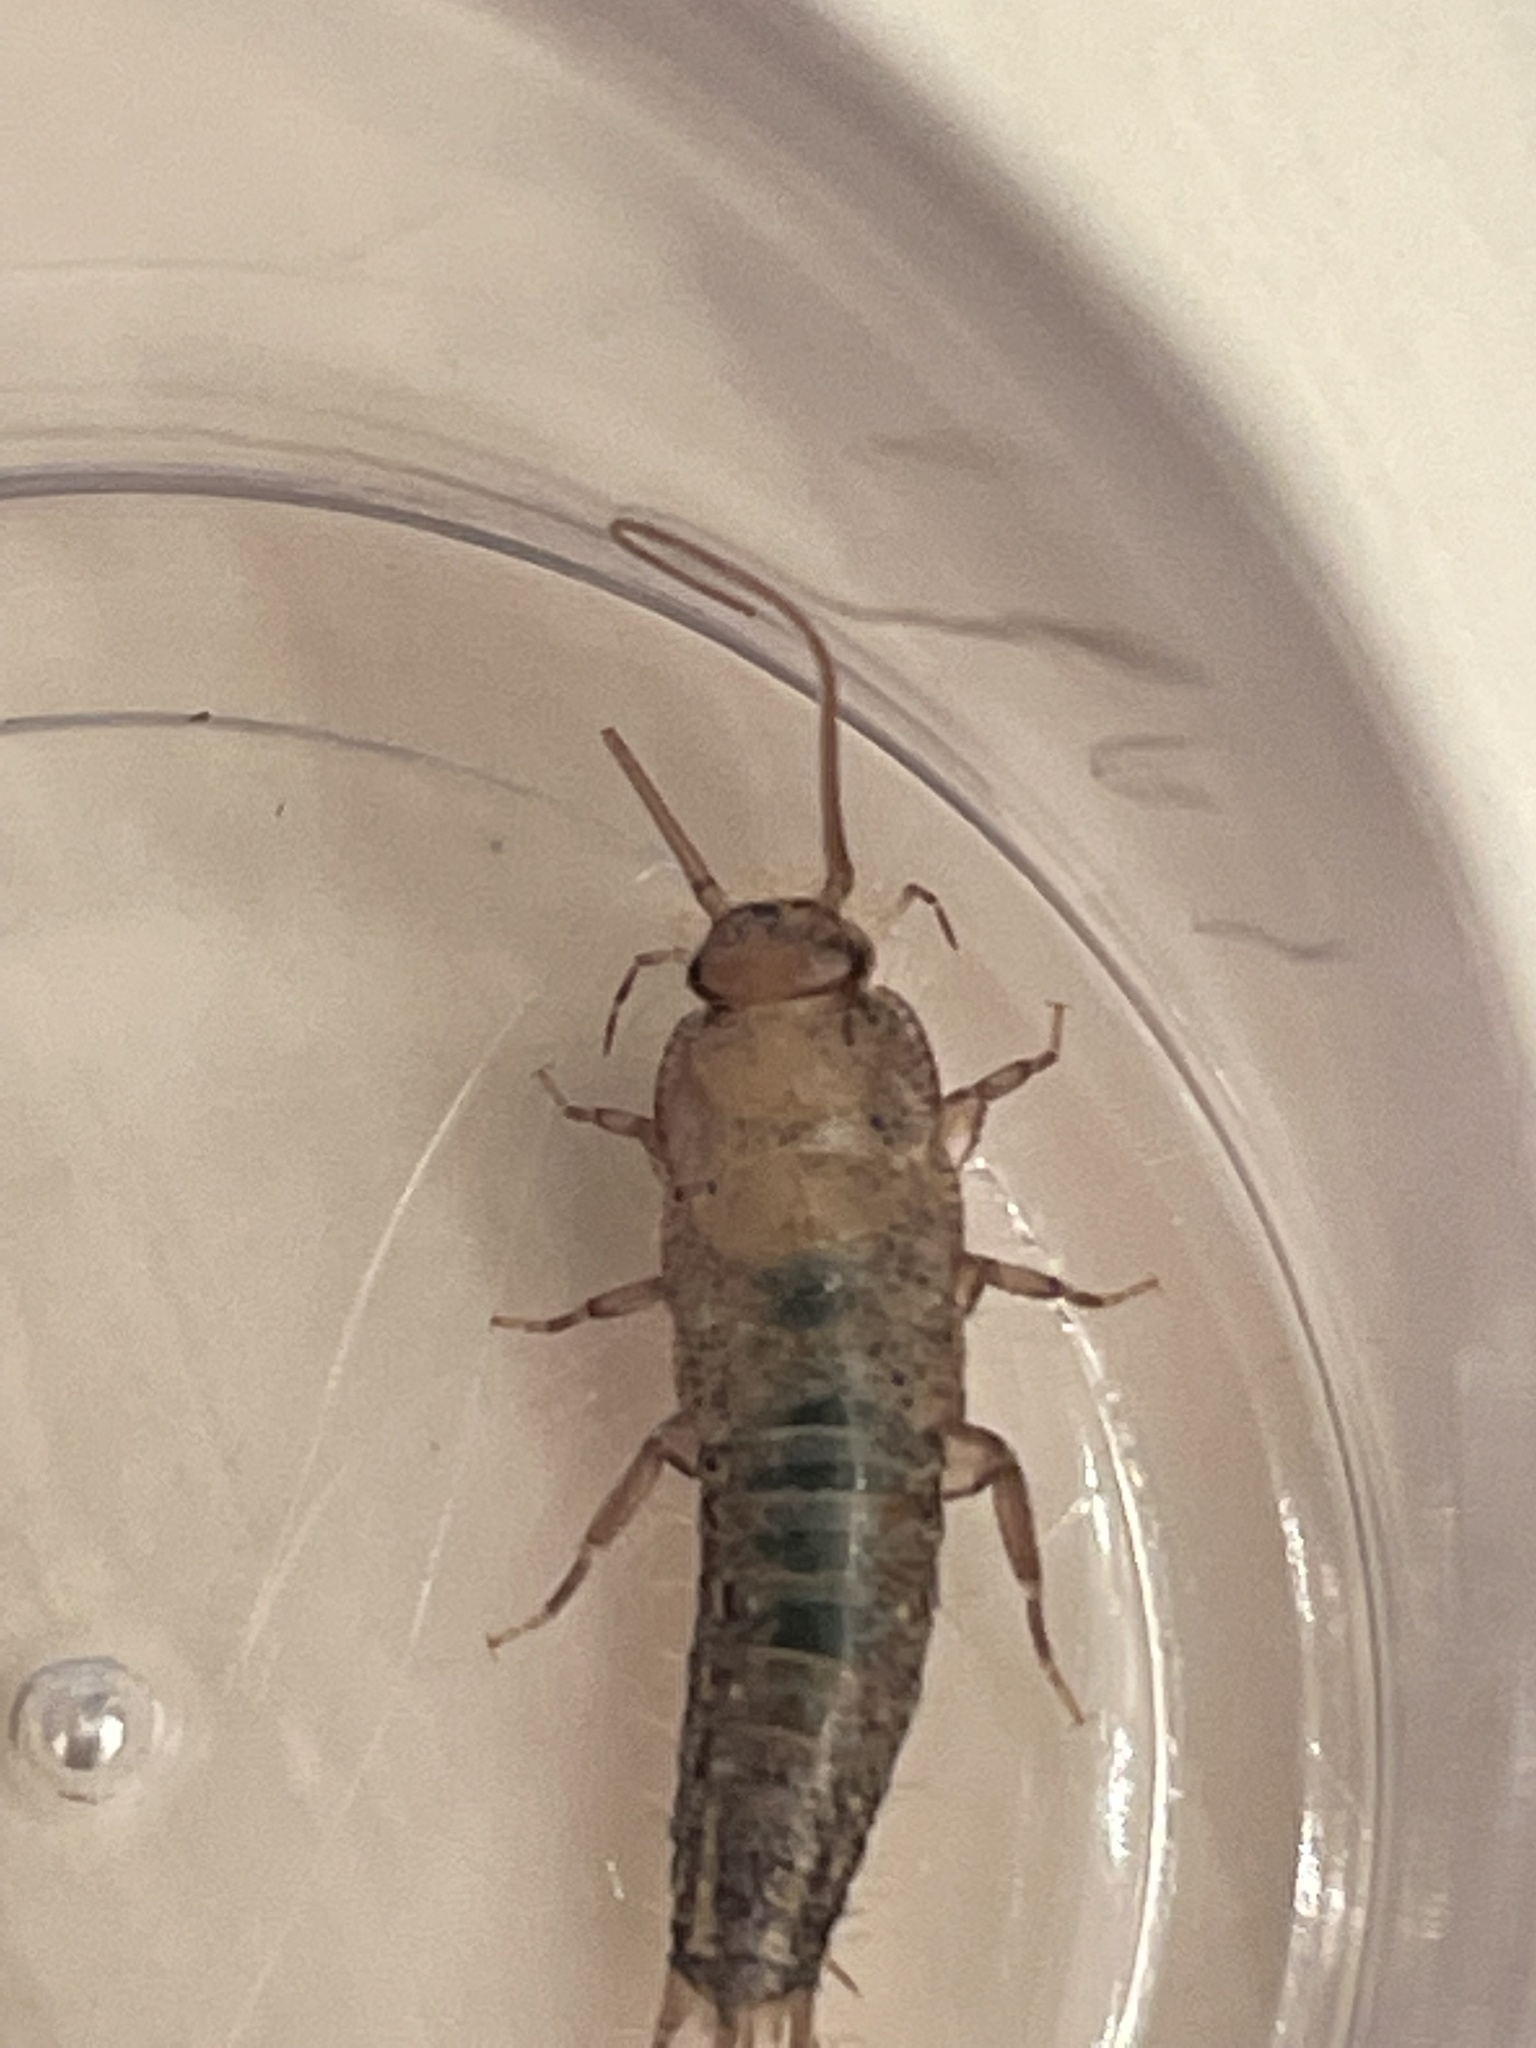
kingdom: Animalia
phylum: Arthropoda
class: Insecta
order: Zygentoma
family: Lepismatidae
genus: Ctenolepisma
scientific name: Ctenolepisma lineata
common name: Four-lined silverfish
